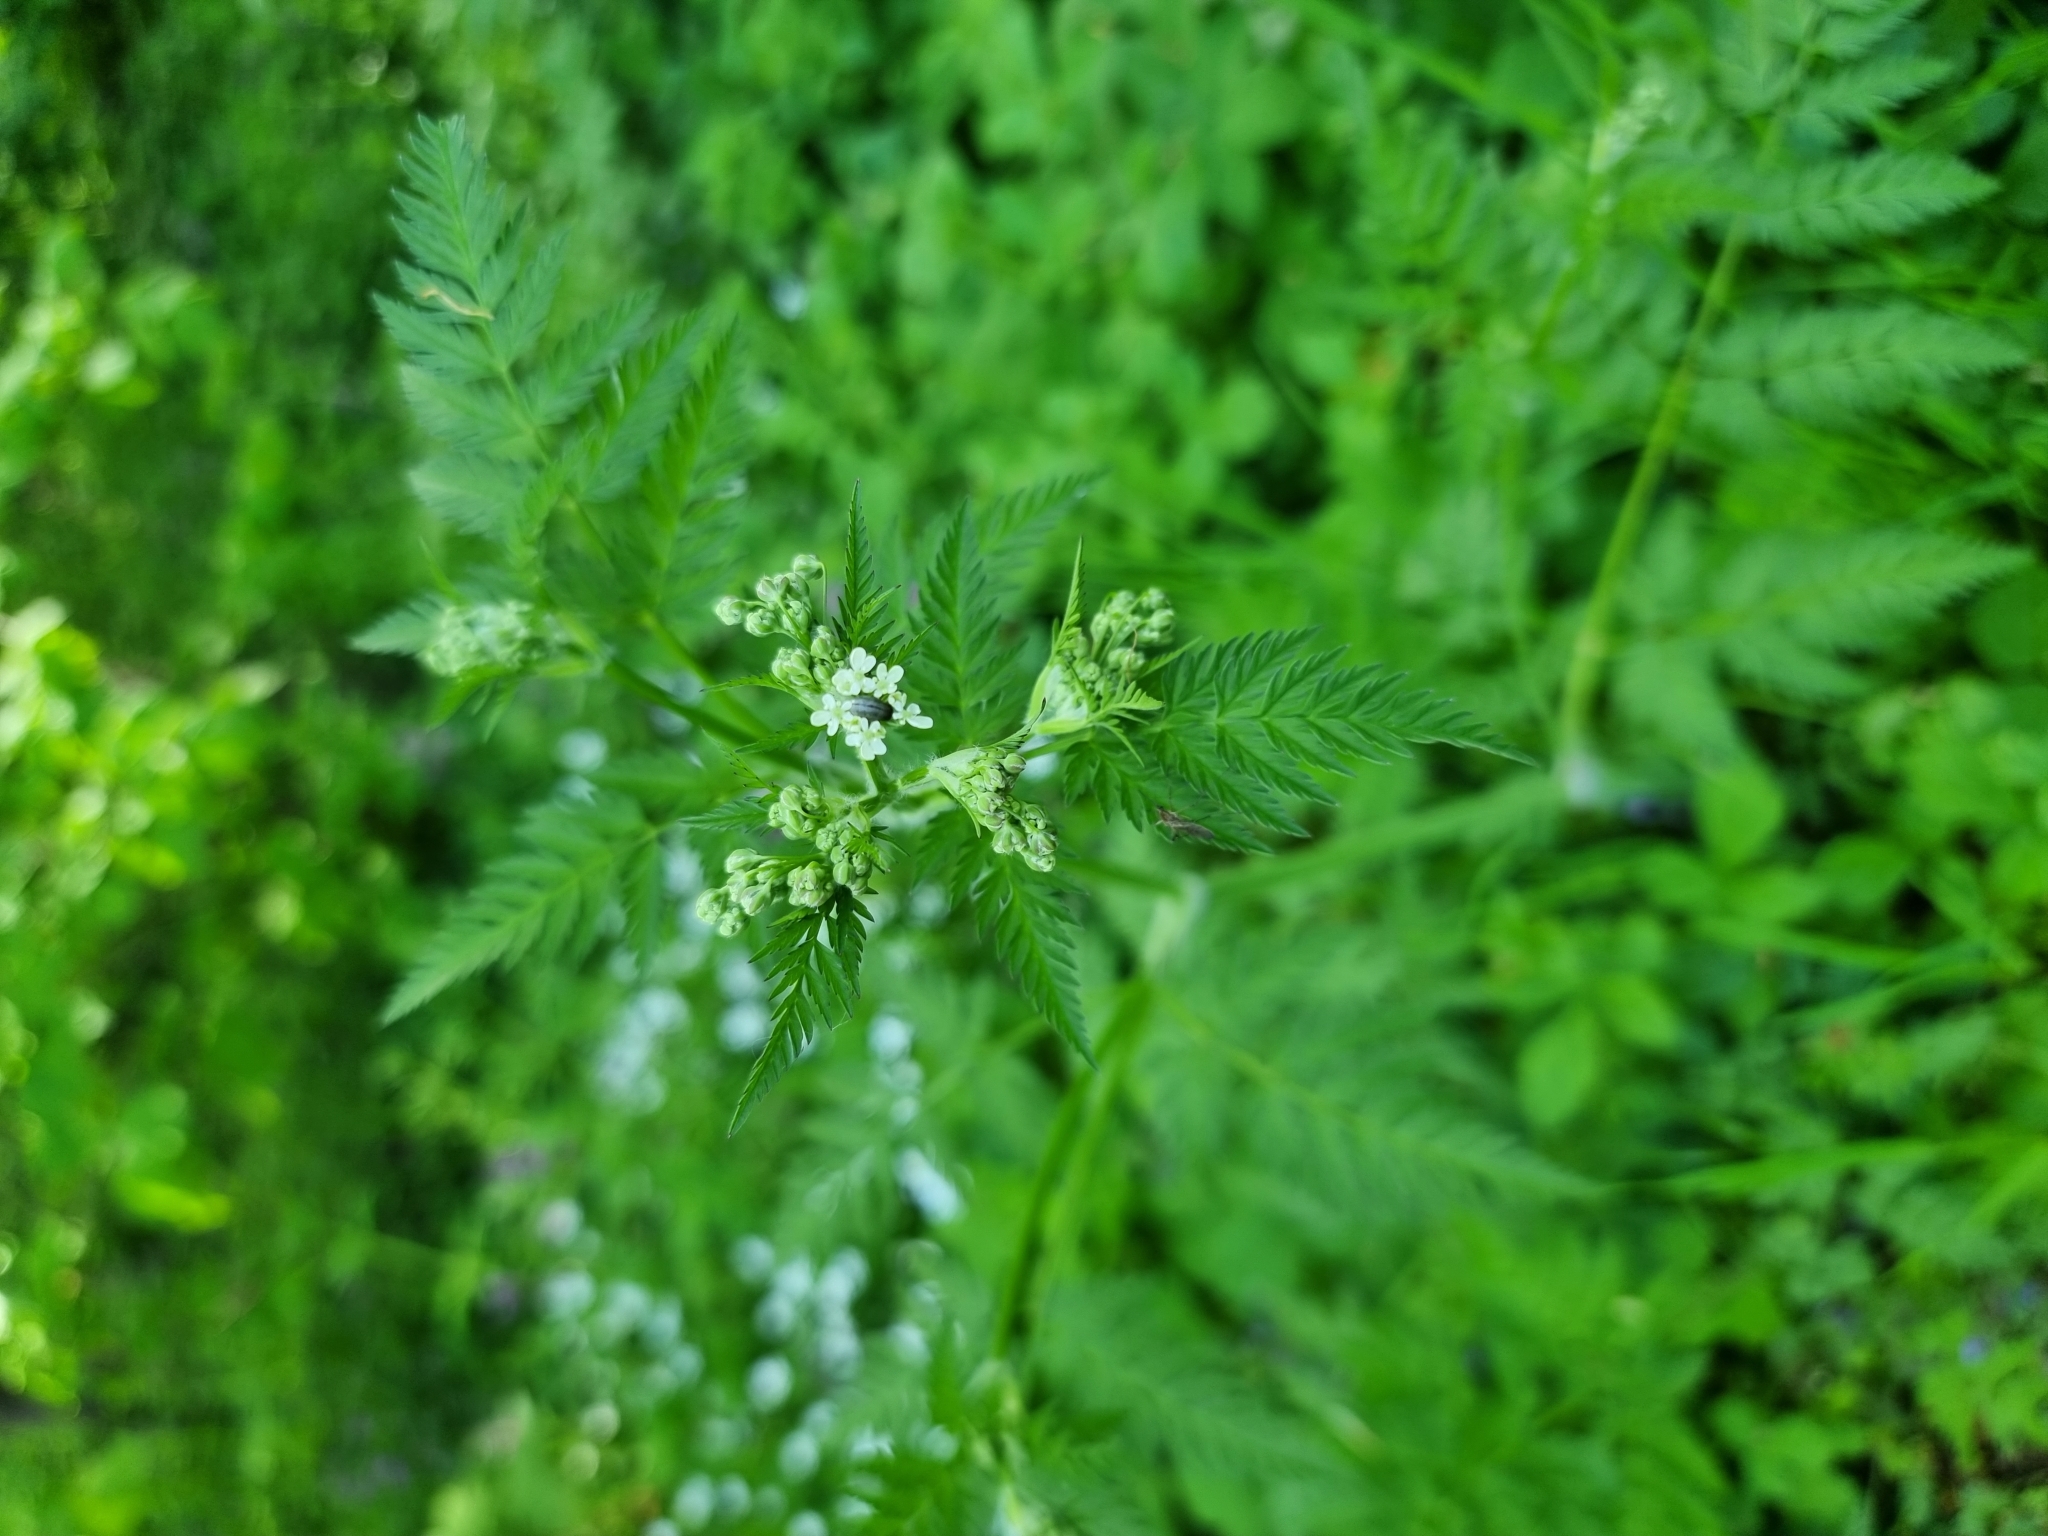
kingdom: Plantae
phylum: Tracheophyta
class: Magnoliopsida
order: Apiales
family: Apiaceae
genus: Anthriscus
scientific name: Anthriscus sylvestris
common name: Cow parsley
